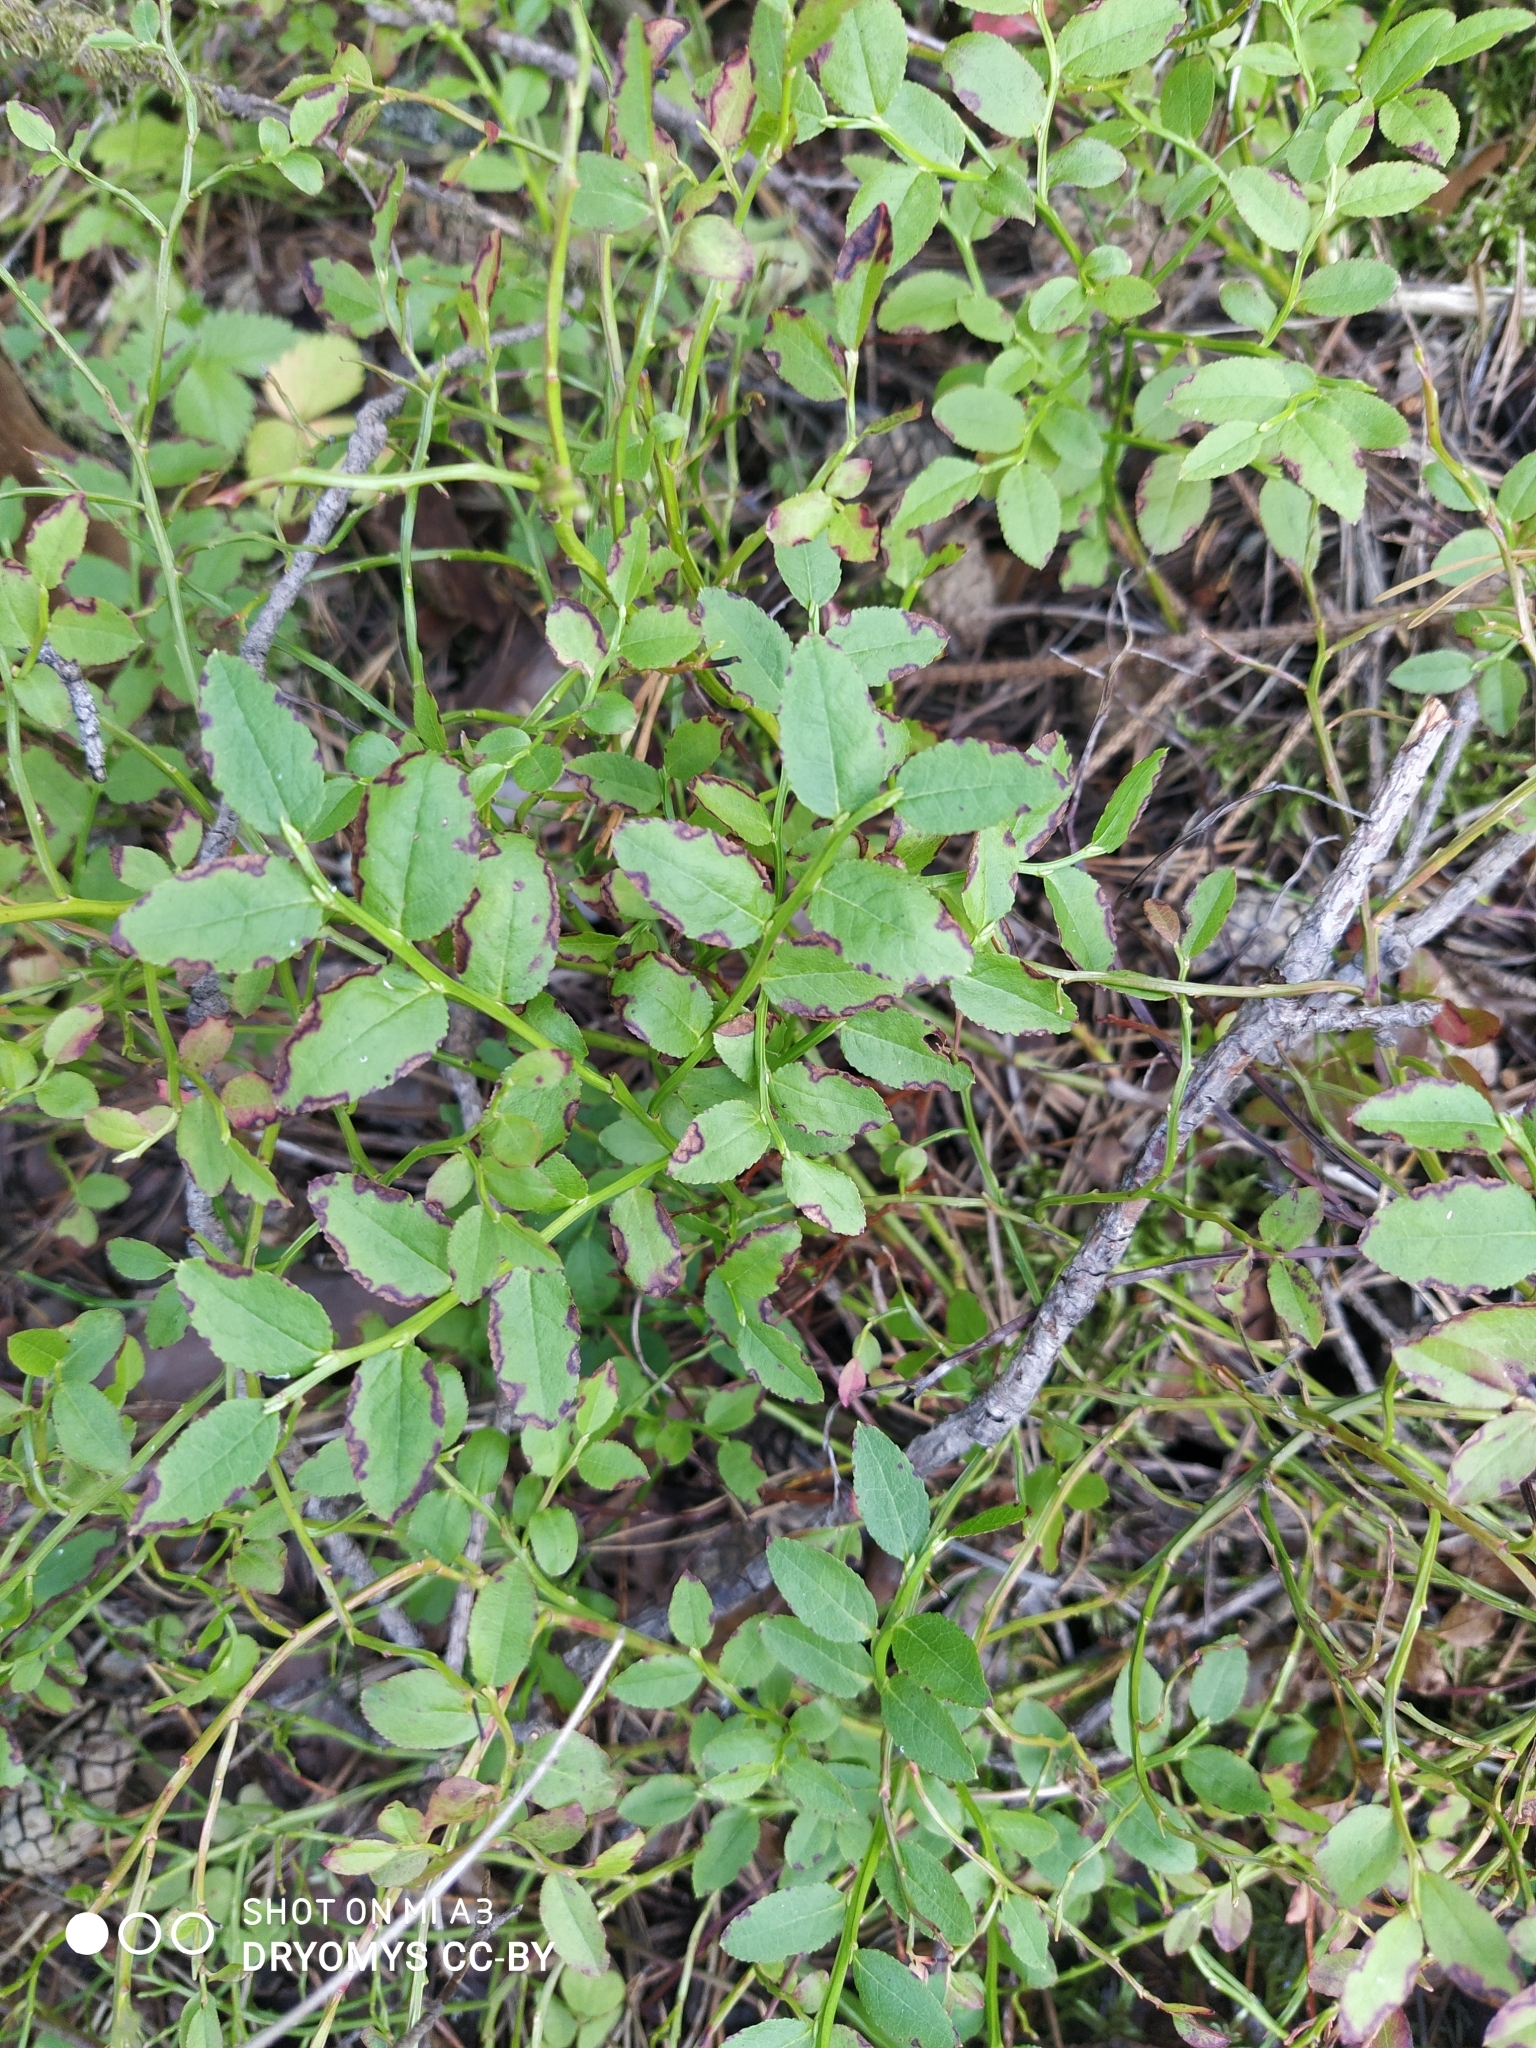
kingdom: Plantae
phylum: Tracheophyta
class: Magnoliopsida
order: Ericales
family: Ericaceae
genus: Vaccinium
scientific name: Vaccinium myrtillus
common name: Bilberry
